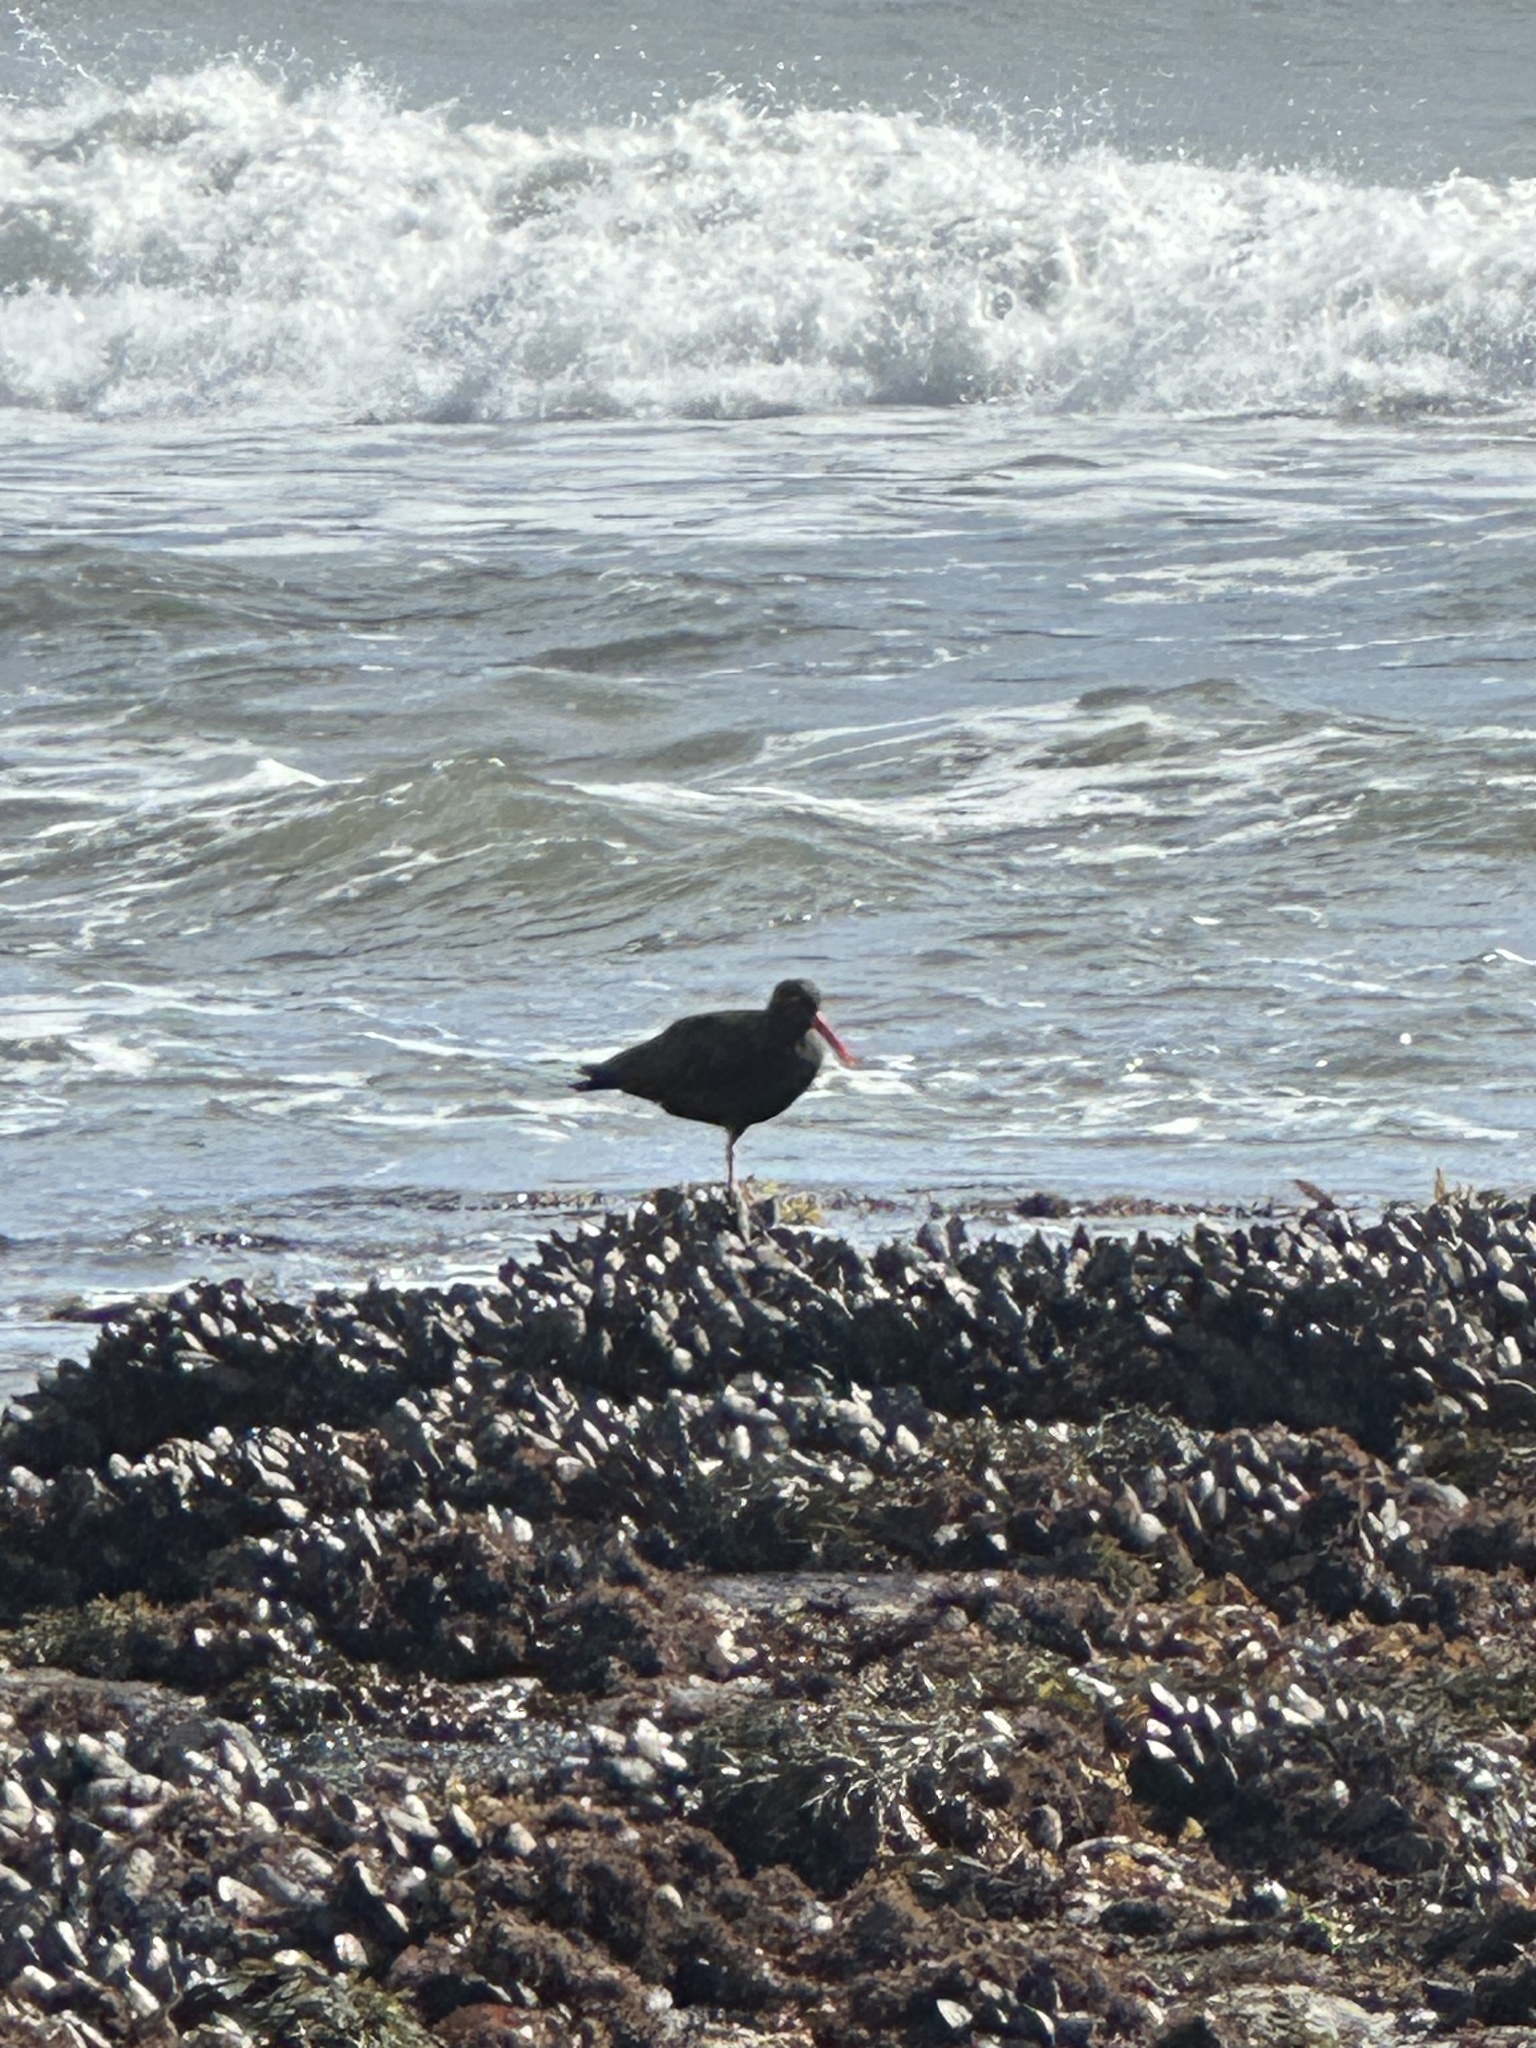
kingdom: Animalia
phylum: Chordata
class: Aves
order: Charadriiformes
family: Haematopodidae
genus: Haematopus
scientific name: Haematopus bachmani
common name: Black oystercatcher
